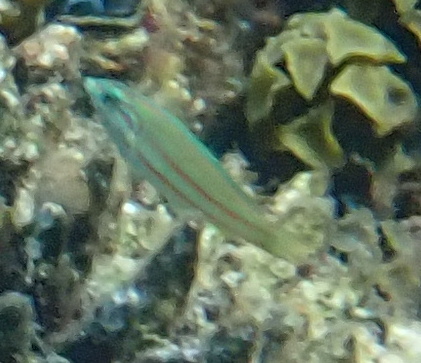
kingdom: Animalia
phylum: Chordata
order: Perciformes
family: Labridae
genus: Thalassoma
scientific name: Thalassoma rueppellii
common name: Klunzinger's wrasse
